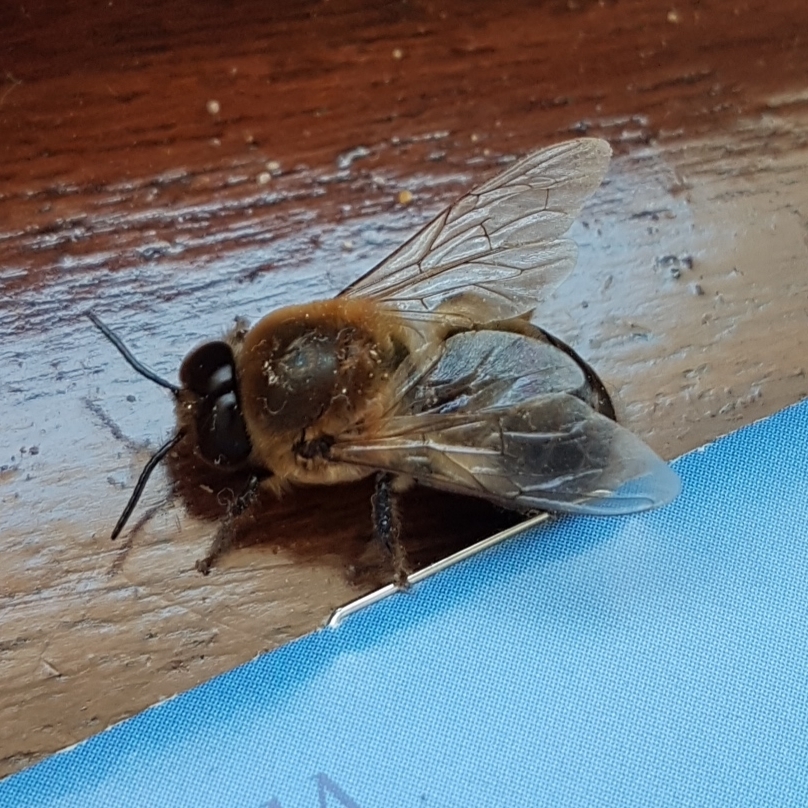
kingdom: Animalia
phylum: Arthropoda
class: Insecta
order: Hymenoptera
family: Apidae
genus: Apis
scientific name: Apis mellifera
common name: Honey bee
